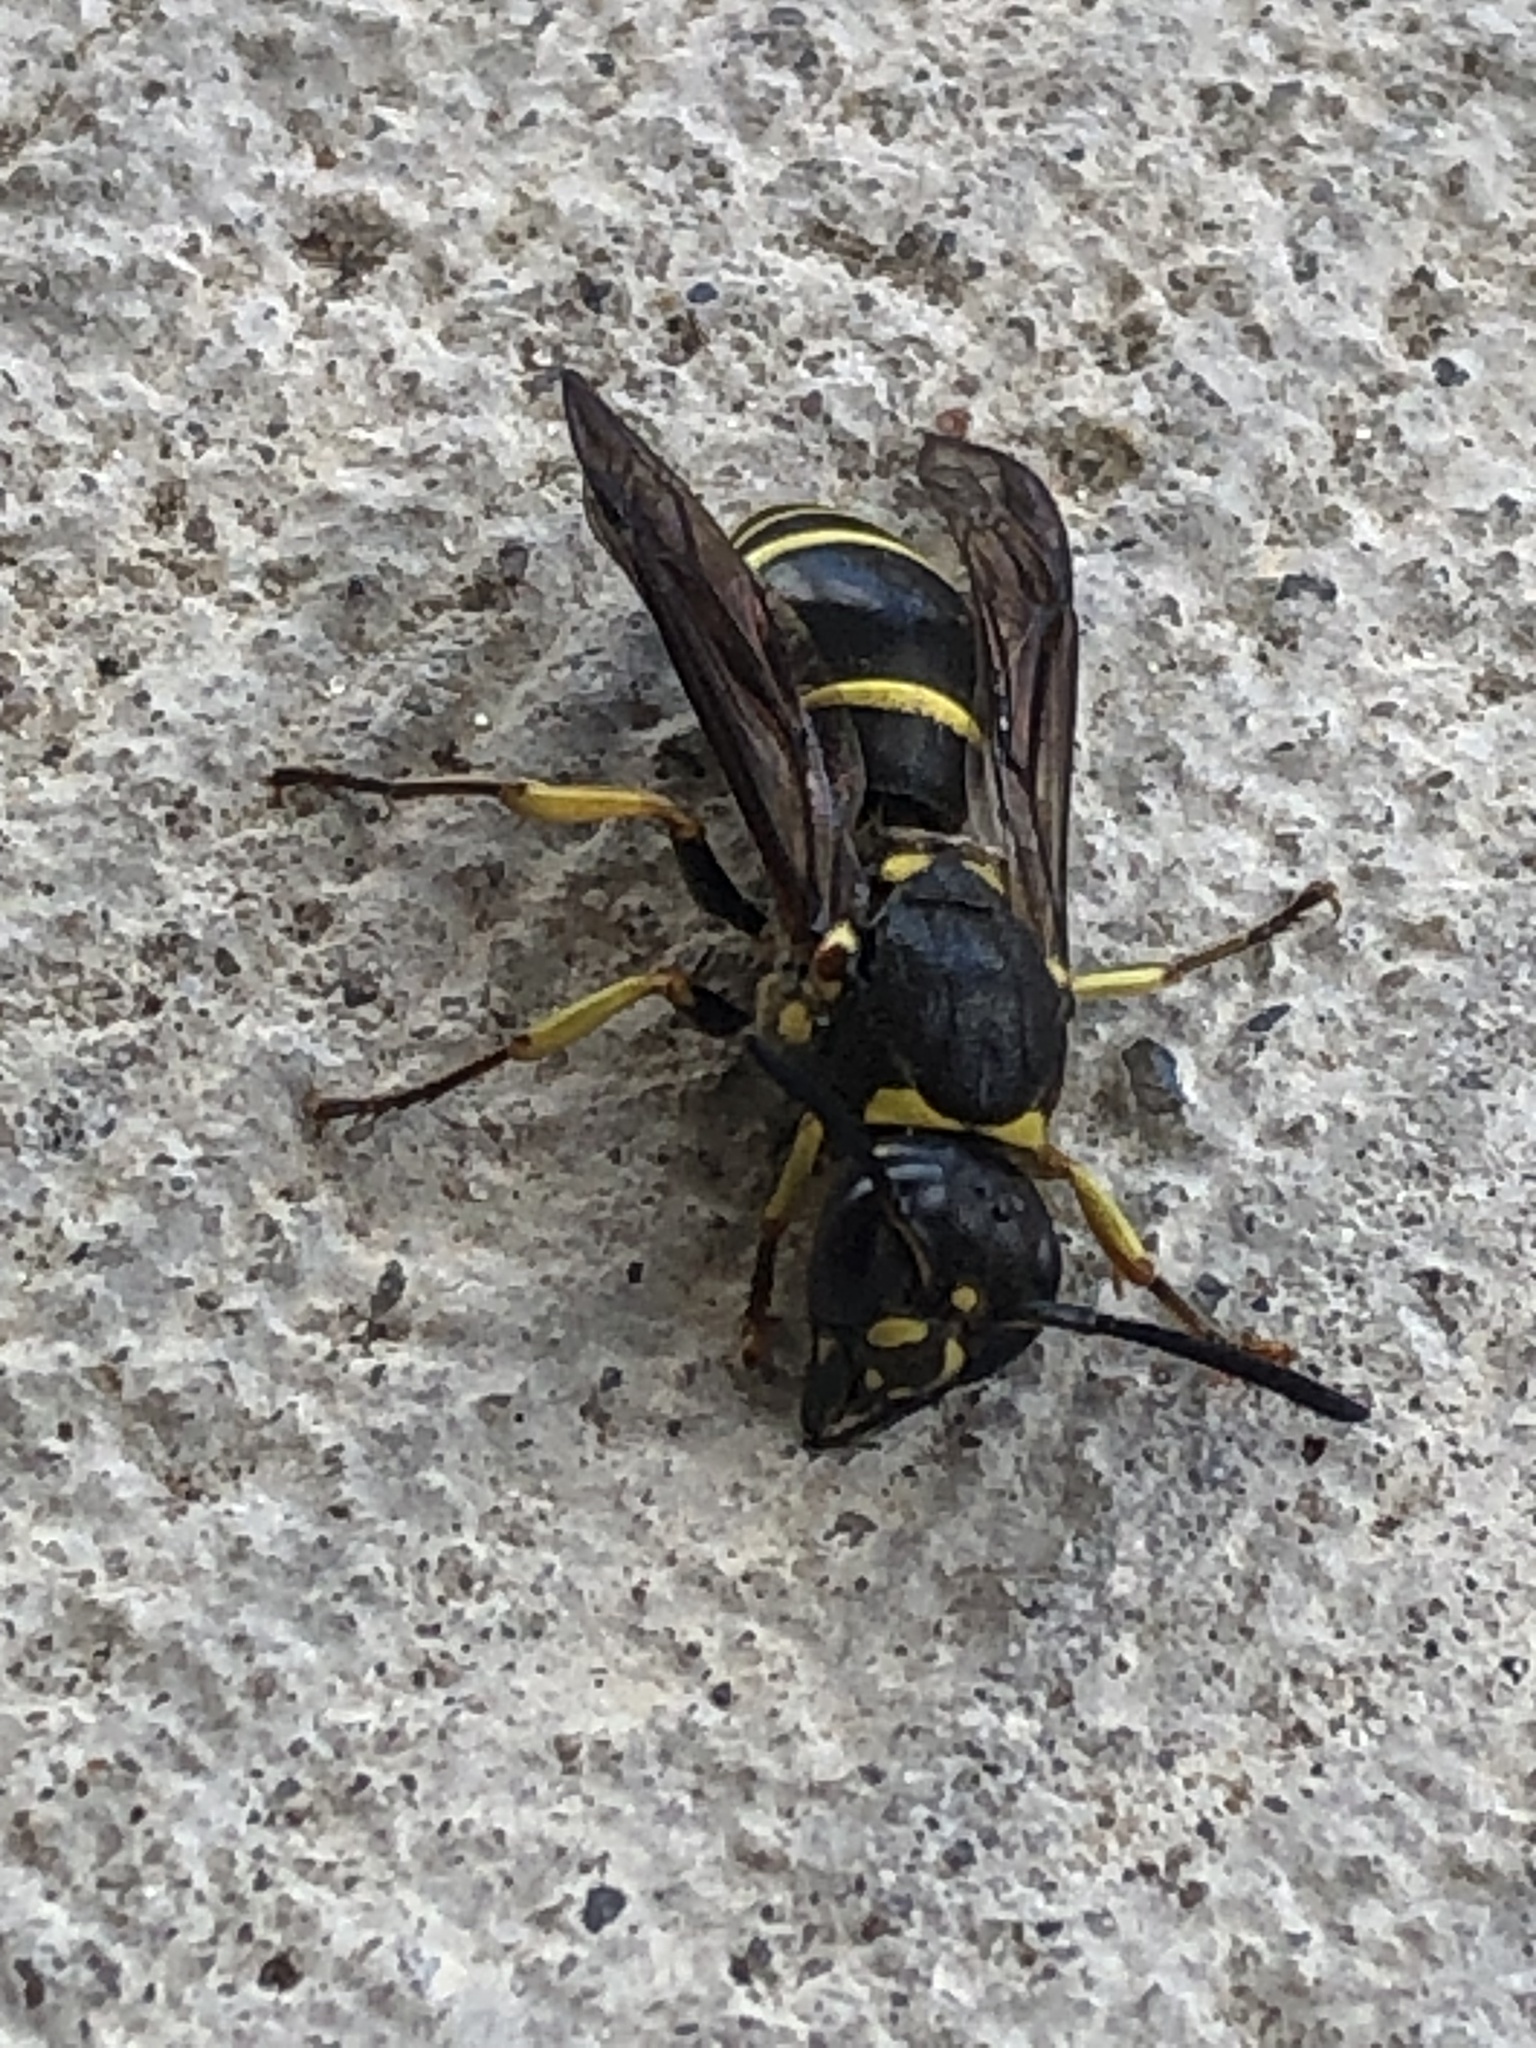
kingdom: Animalia
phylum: Arthropoda
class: Insecta
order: Hymenoptera
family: Vespidae
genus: Ancistrocerus
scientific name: Ancistrocerus
